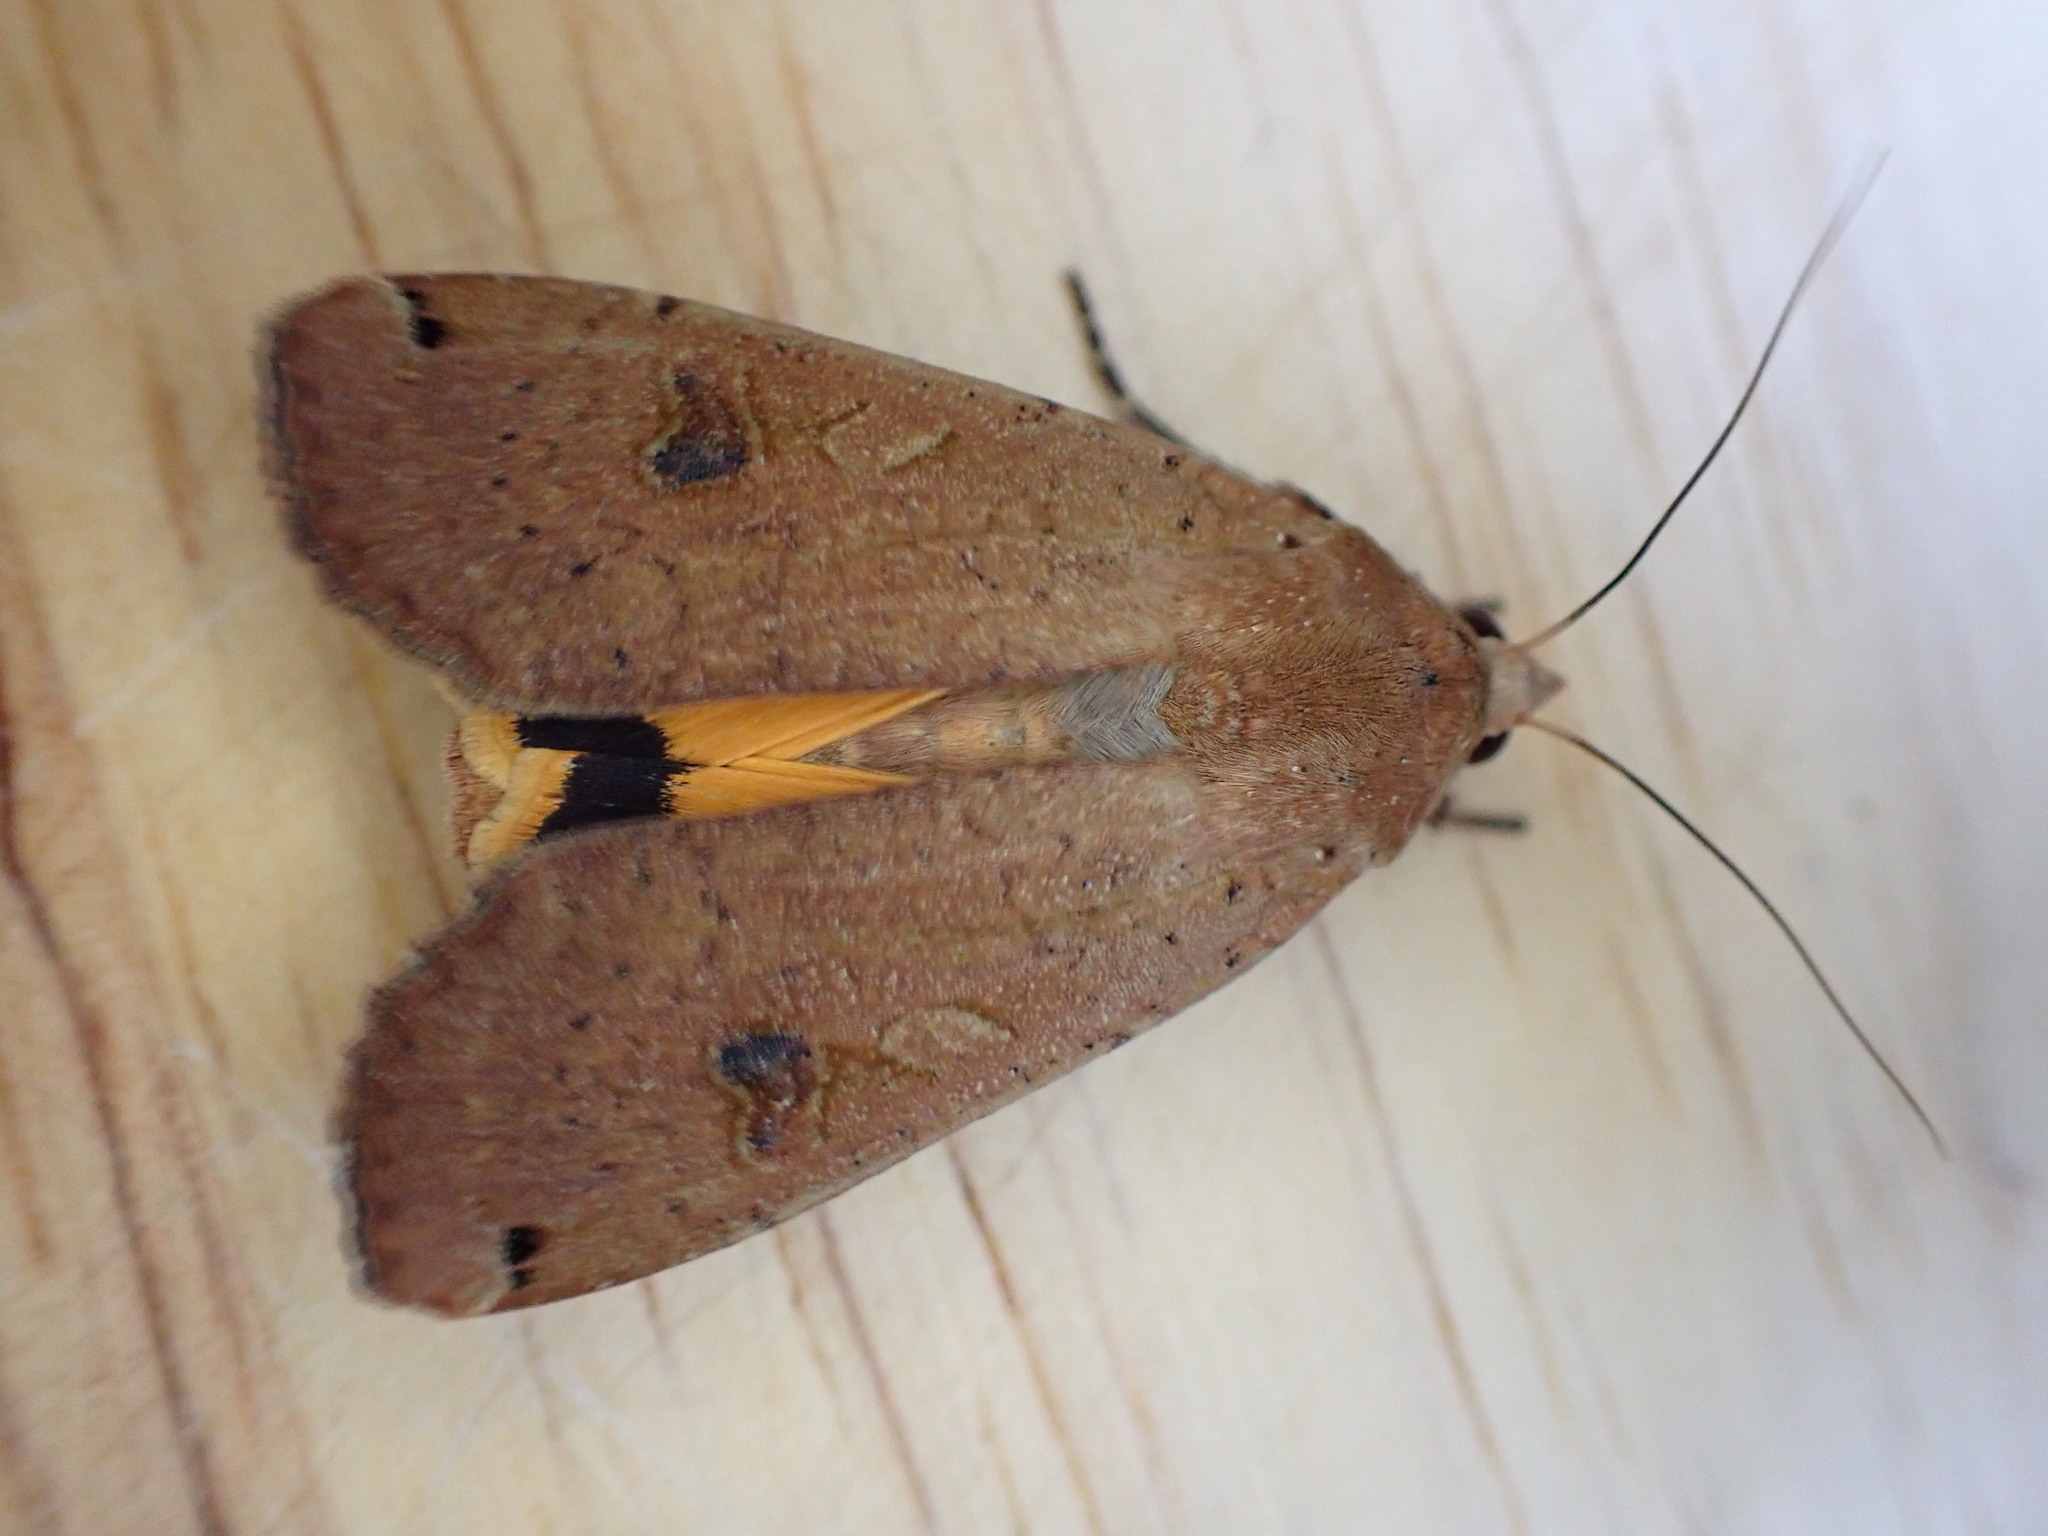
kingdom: Animalia
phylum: Arthropoda
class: Insecta
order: Lepidoptera
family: Noctuidae
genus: Noctua
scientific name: Noctua pronuba
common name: Large yellow underwing
